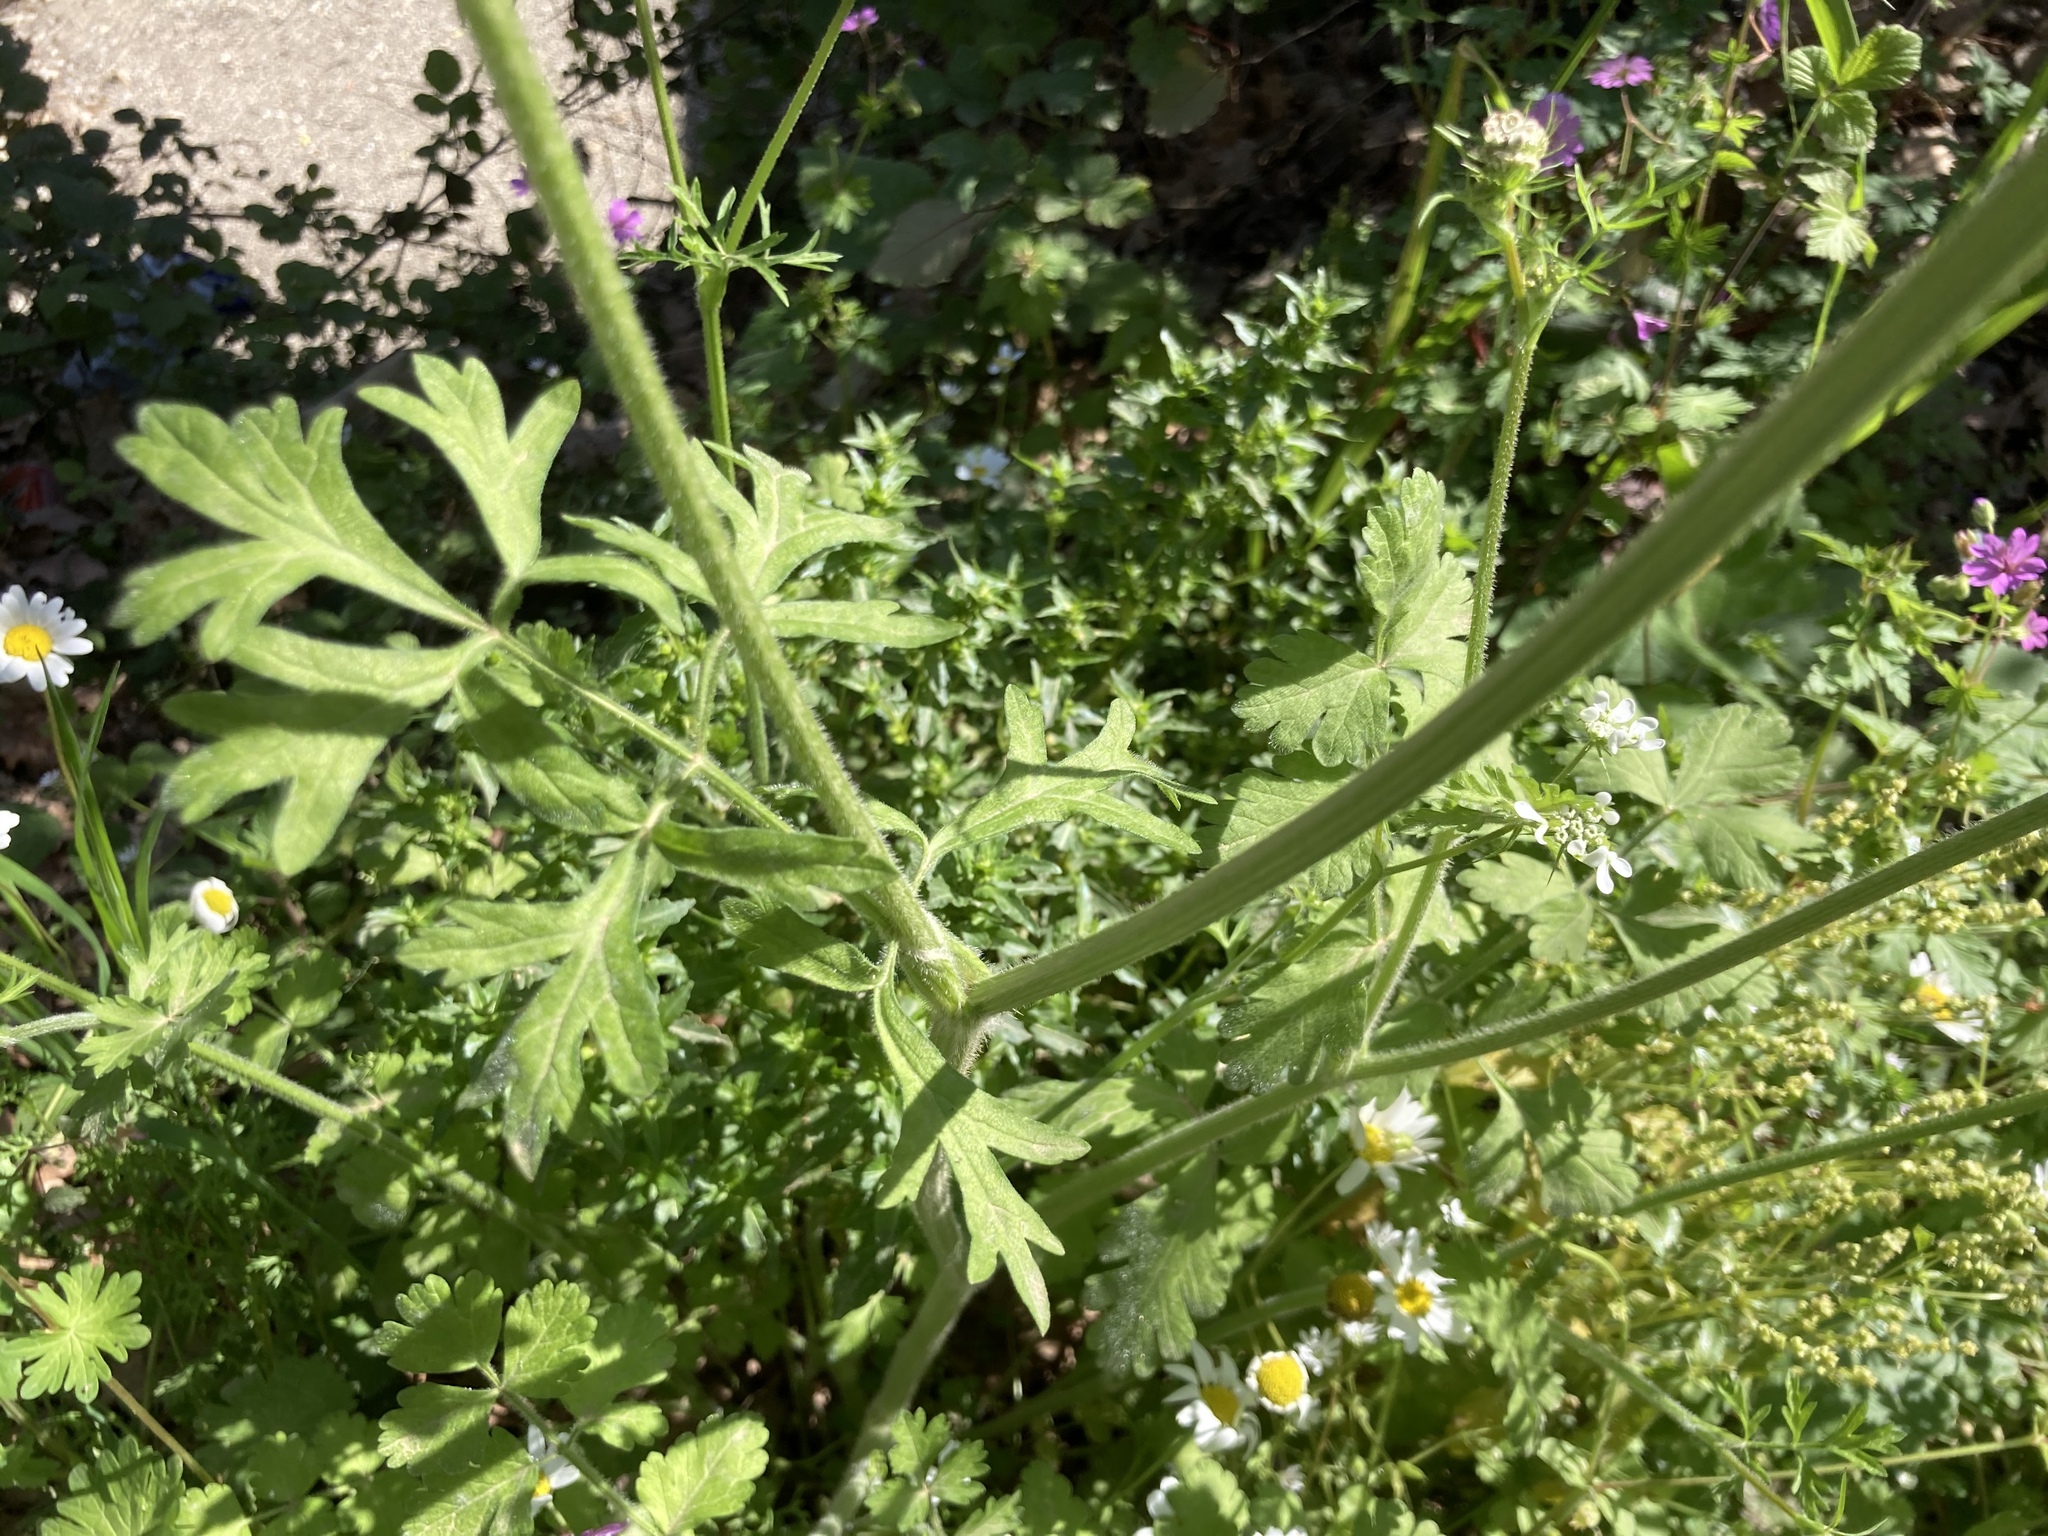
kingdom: Plantae
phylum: Tracheophyta
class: Magnoliopsida
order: Apiales
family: Apiaceae
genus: Tordylium
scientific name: Tordylium apulum
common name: Mediterranean hartwort
